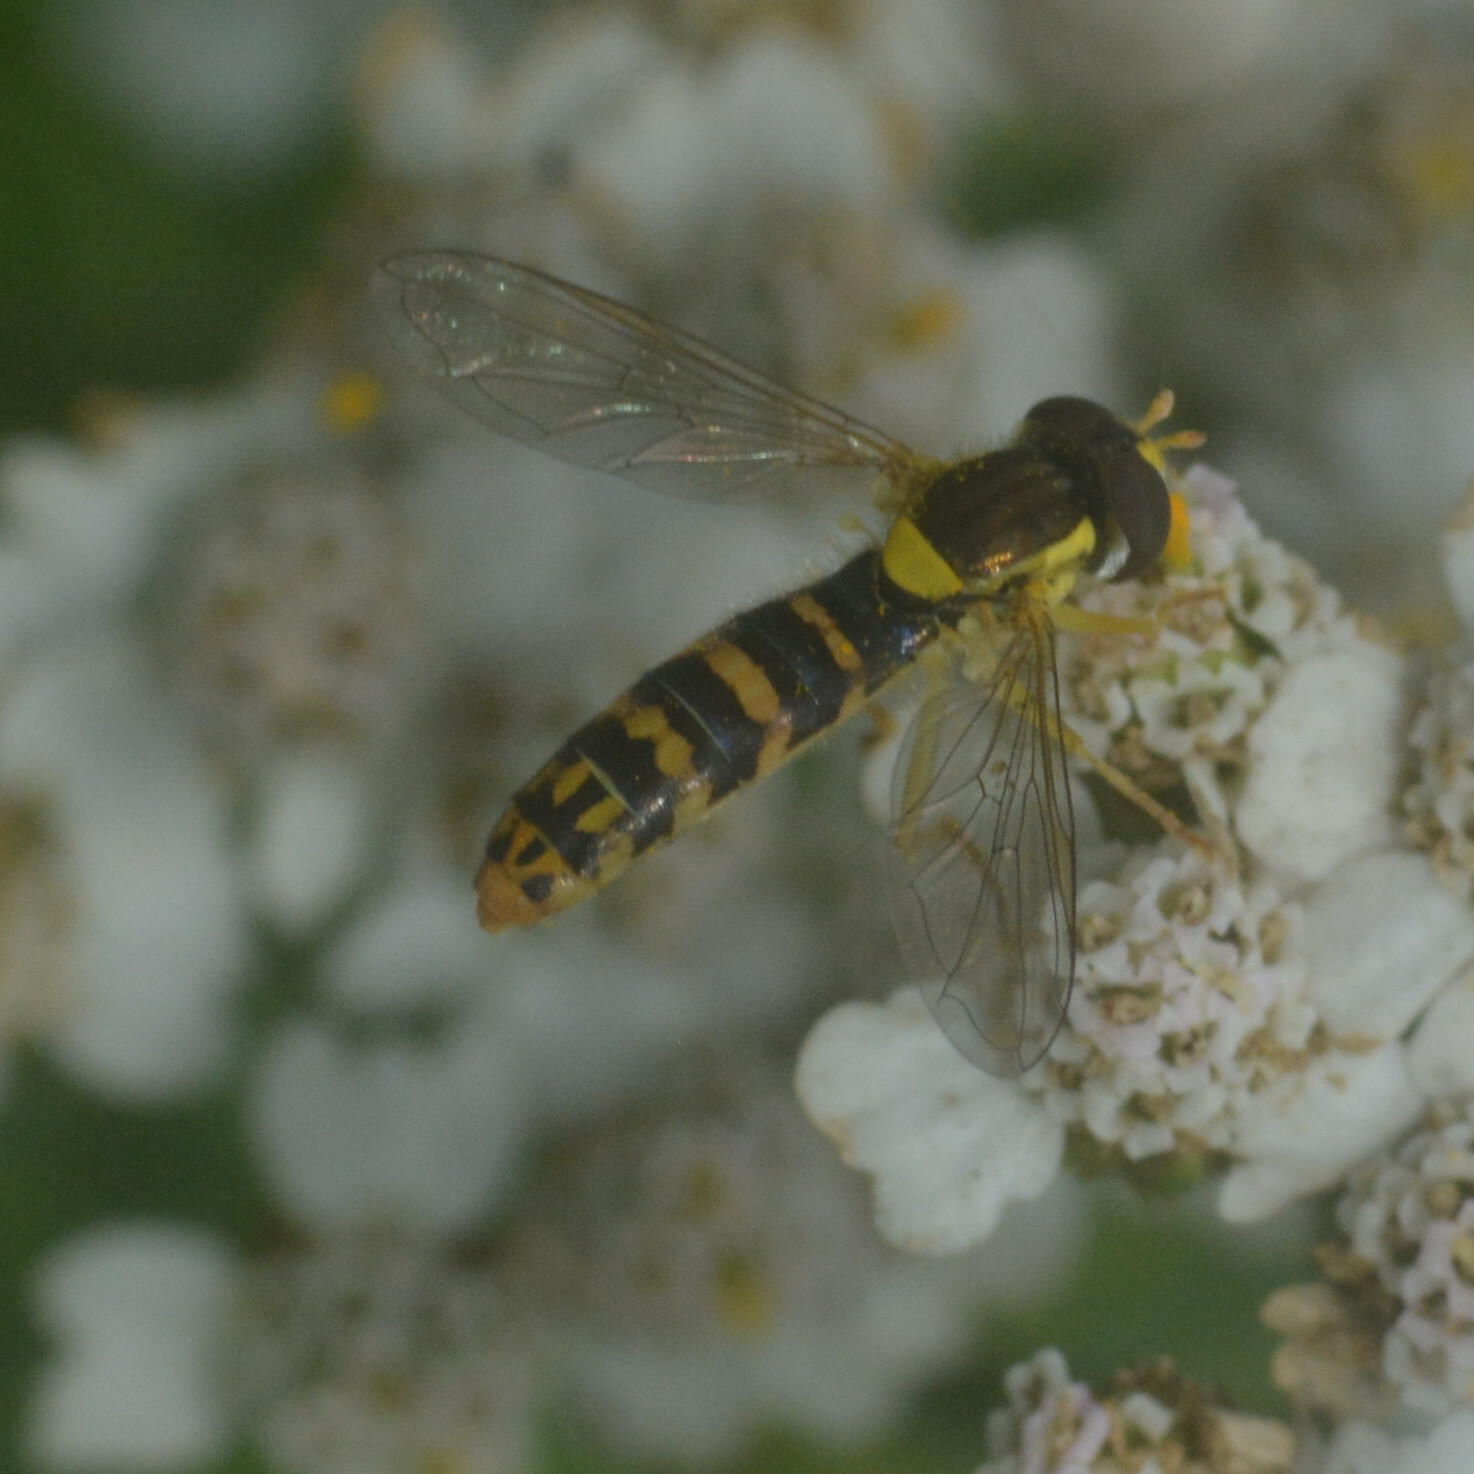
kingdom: Animalia
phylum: Arthropoda
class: Insecta
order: Diptera
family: Syrphidae
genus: Sphaerophoria
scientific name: Sphaerophoria
